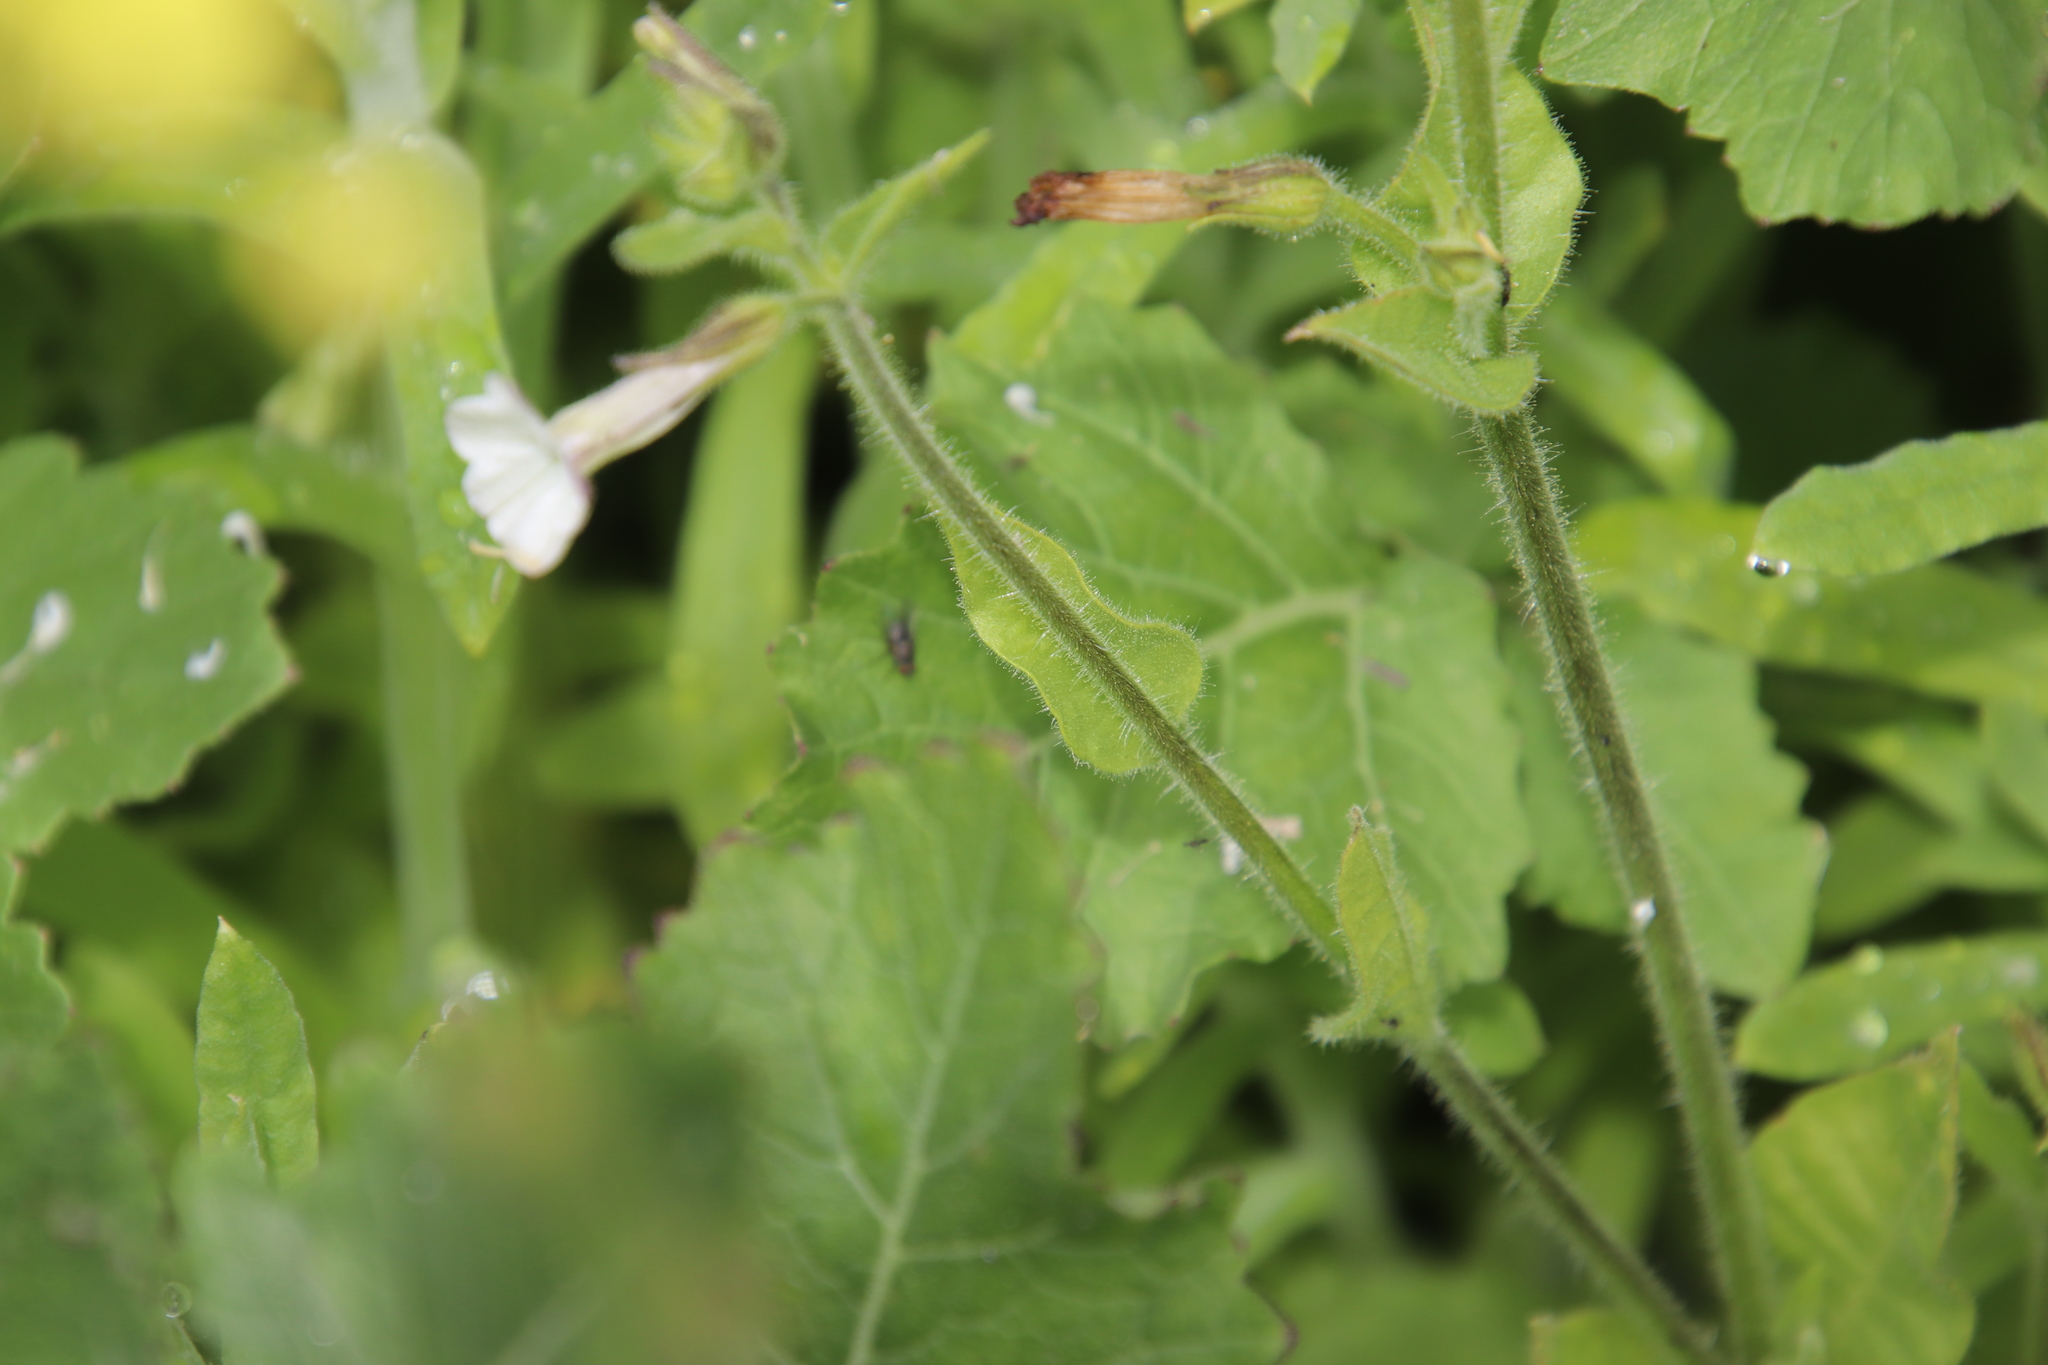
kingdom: Plantae
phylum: Tracheophyta
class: Magnoliopsida
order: Solanales
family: Solanaceae
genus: Nicotiana
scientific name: Nicotiana clevelandii
